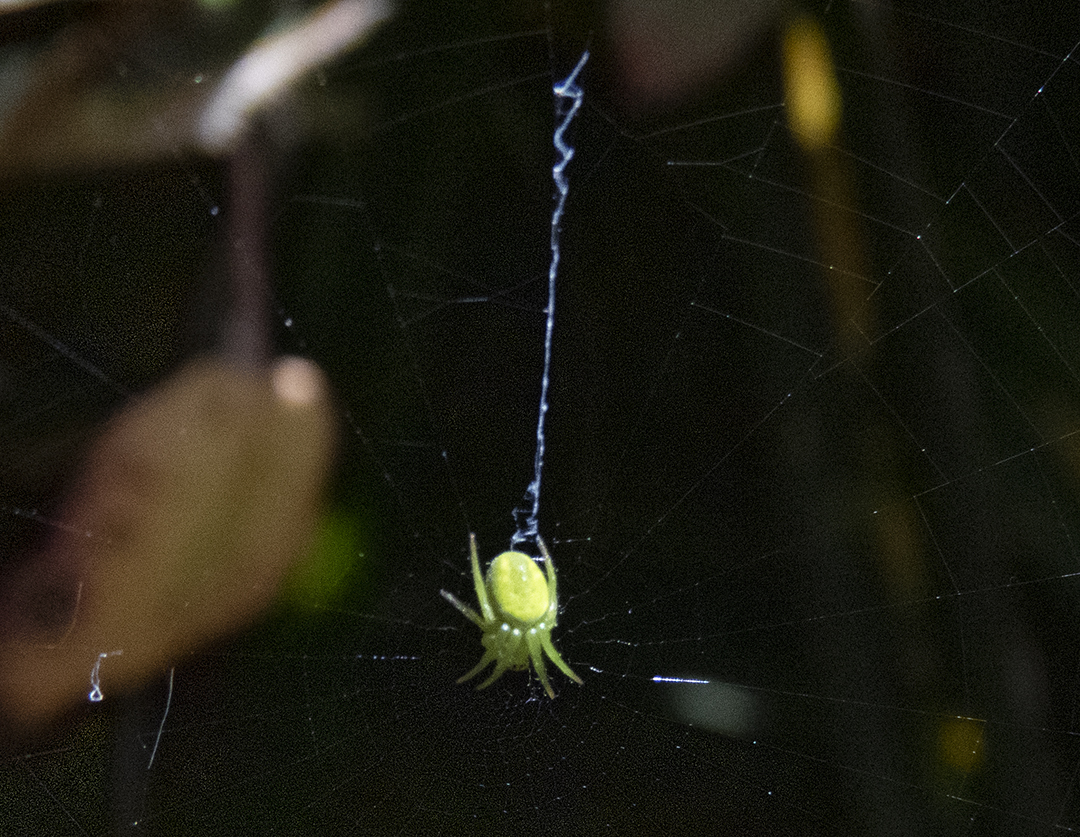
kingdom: Animalia
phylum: Arthropoda
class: Arachnida
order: Araneae
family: Araneidae
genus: Colaranea
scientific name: Colaranea viriditas
